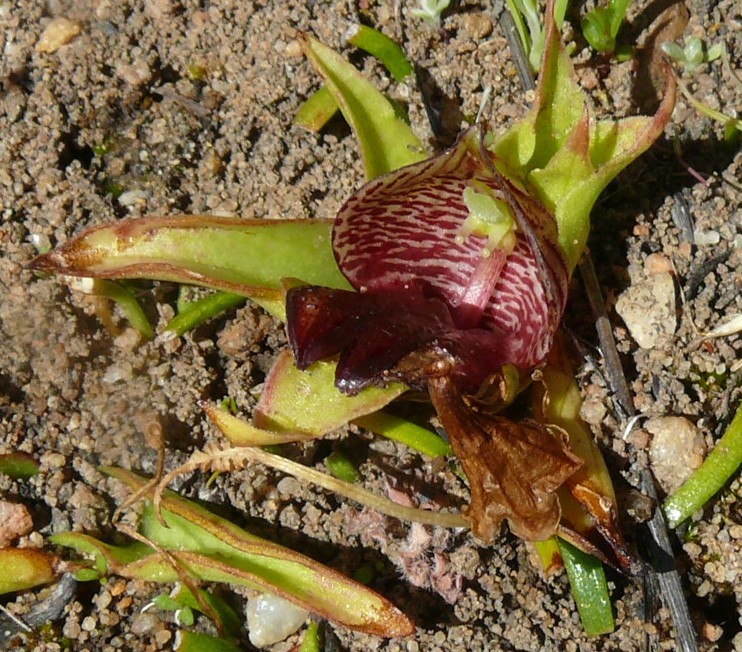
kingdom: Plantae
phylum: Tracheophyta
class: Liliopsida
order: Asparagales
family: Orchidaceae
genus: Satyrium
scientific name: Satyrium pumilum
